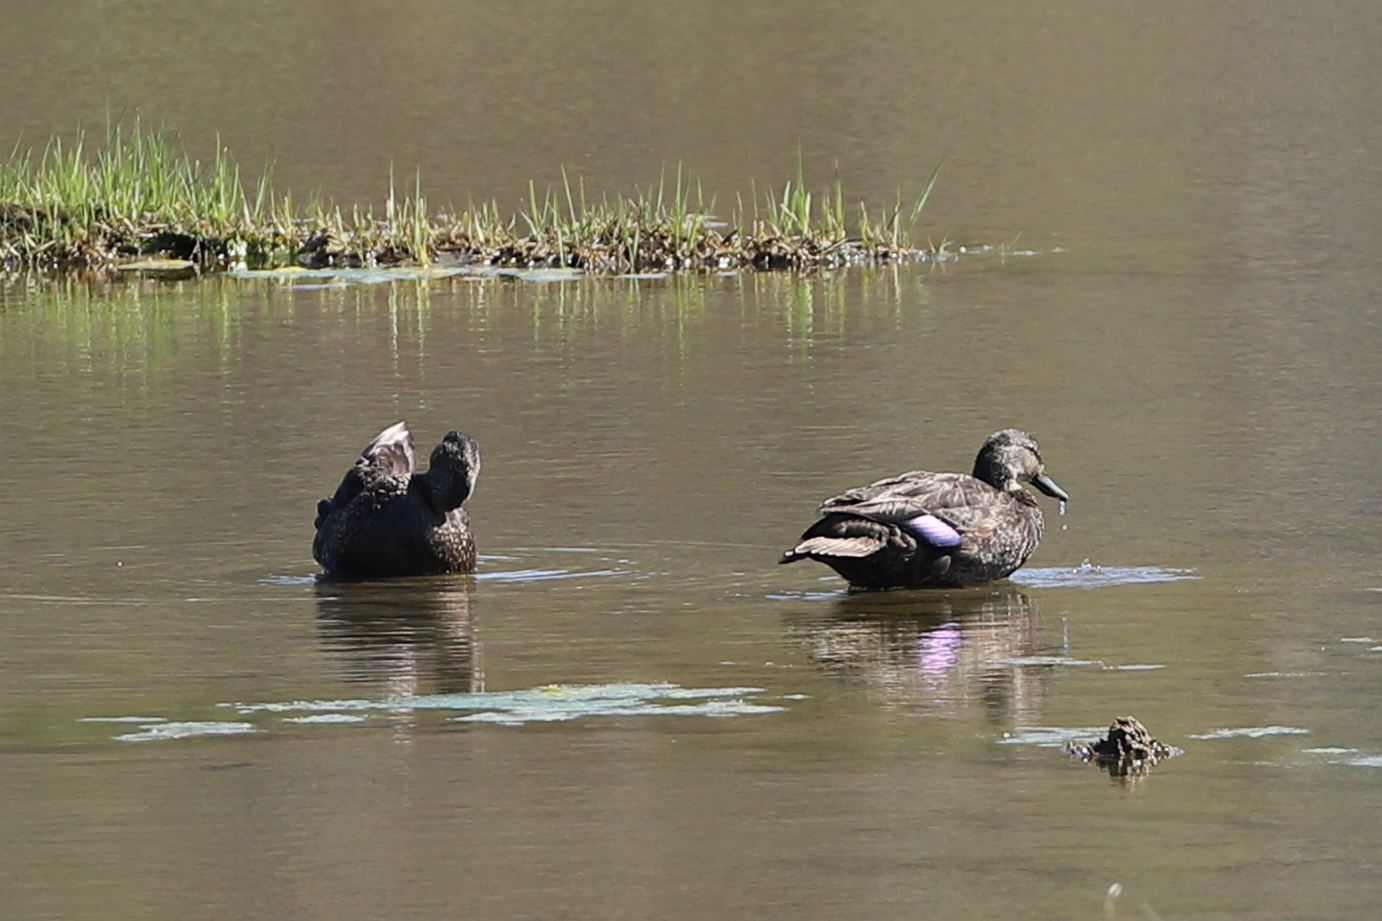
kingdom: Animalia
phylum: Chordata
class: Aves
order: Anseriformes
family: Anatidae
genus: Anas
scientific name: Anas rubripes
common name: American black duck
